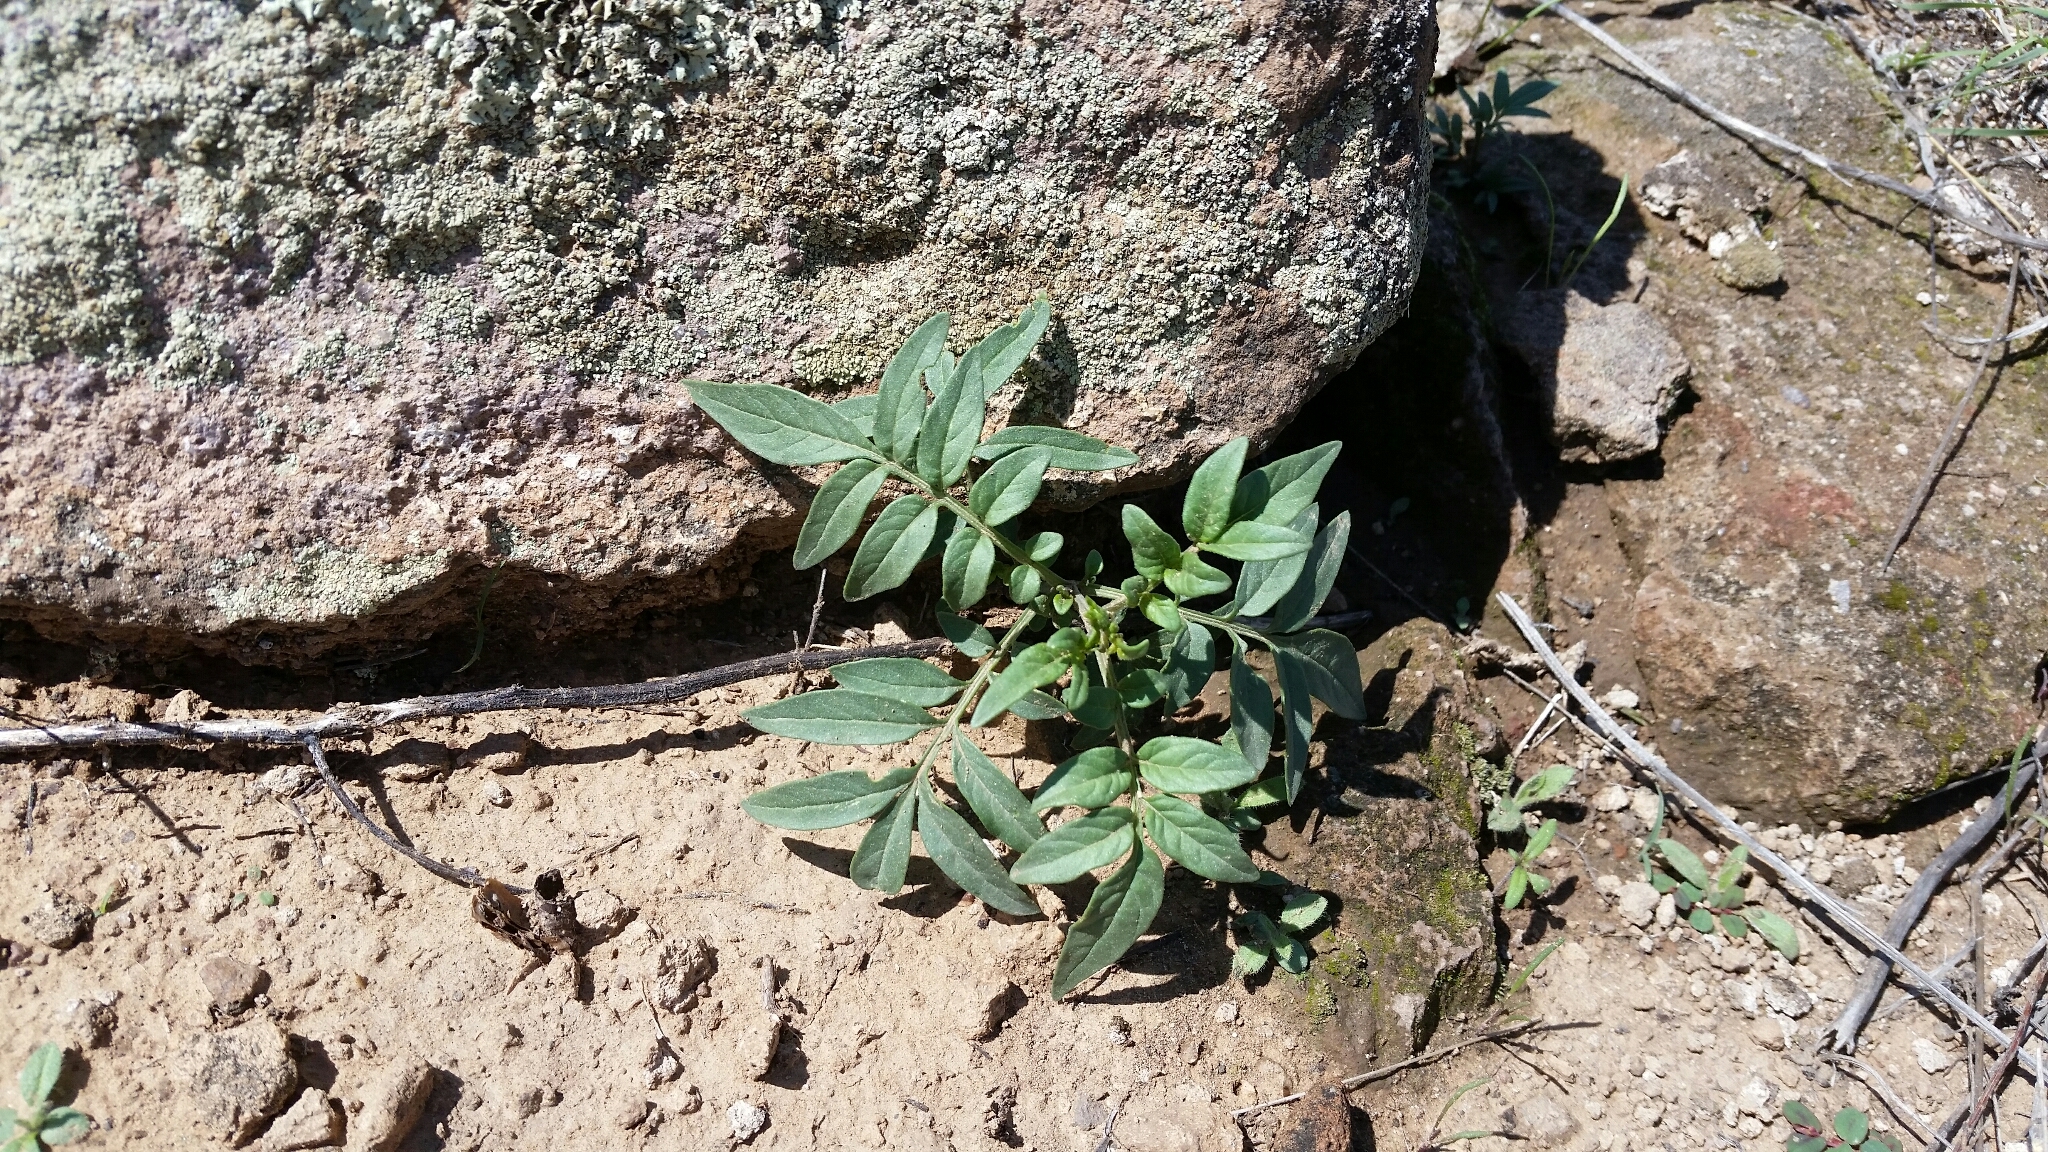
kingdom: Plantae
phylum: Tracheophyta
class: Magnoliopsida
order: Solanales
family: Solanaceae
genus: Solanum
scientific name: Solanum jamesii
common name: Wild potato
